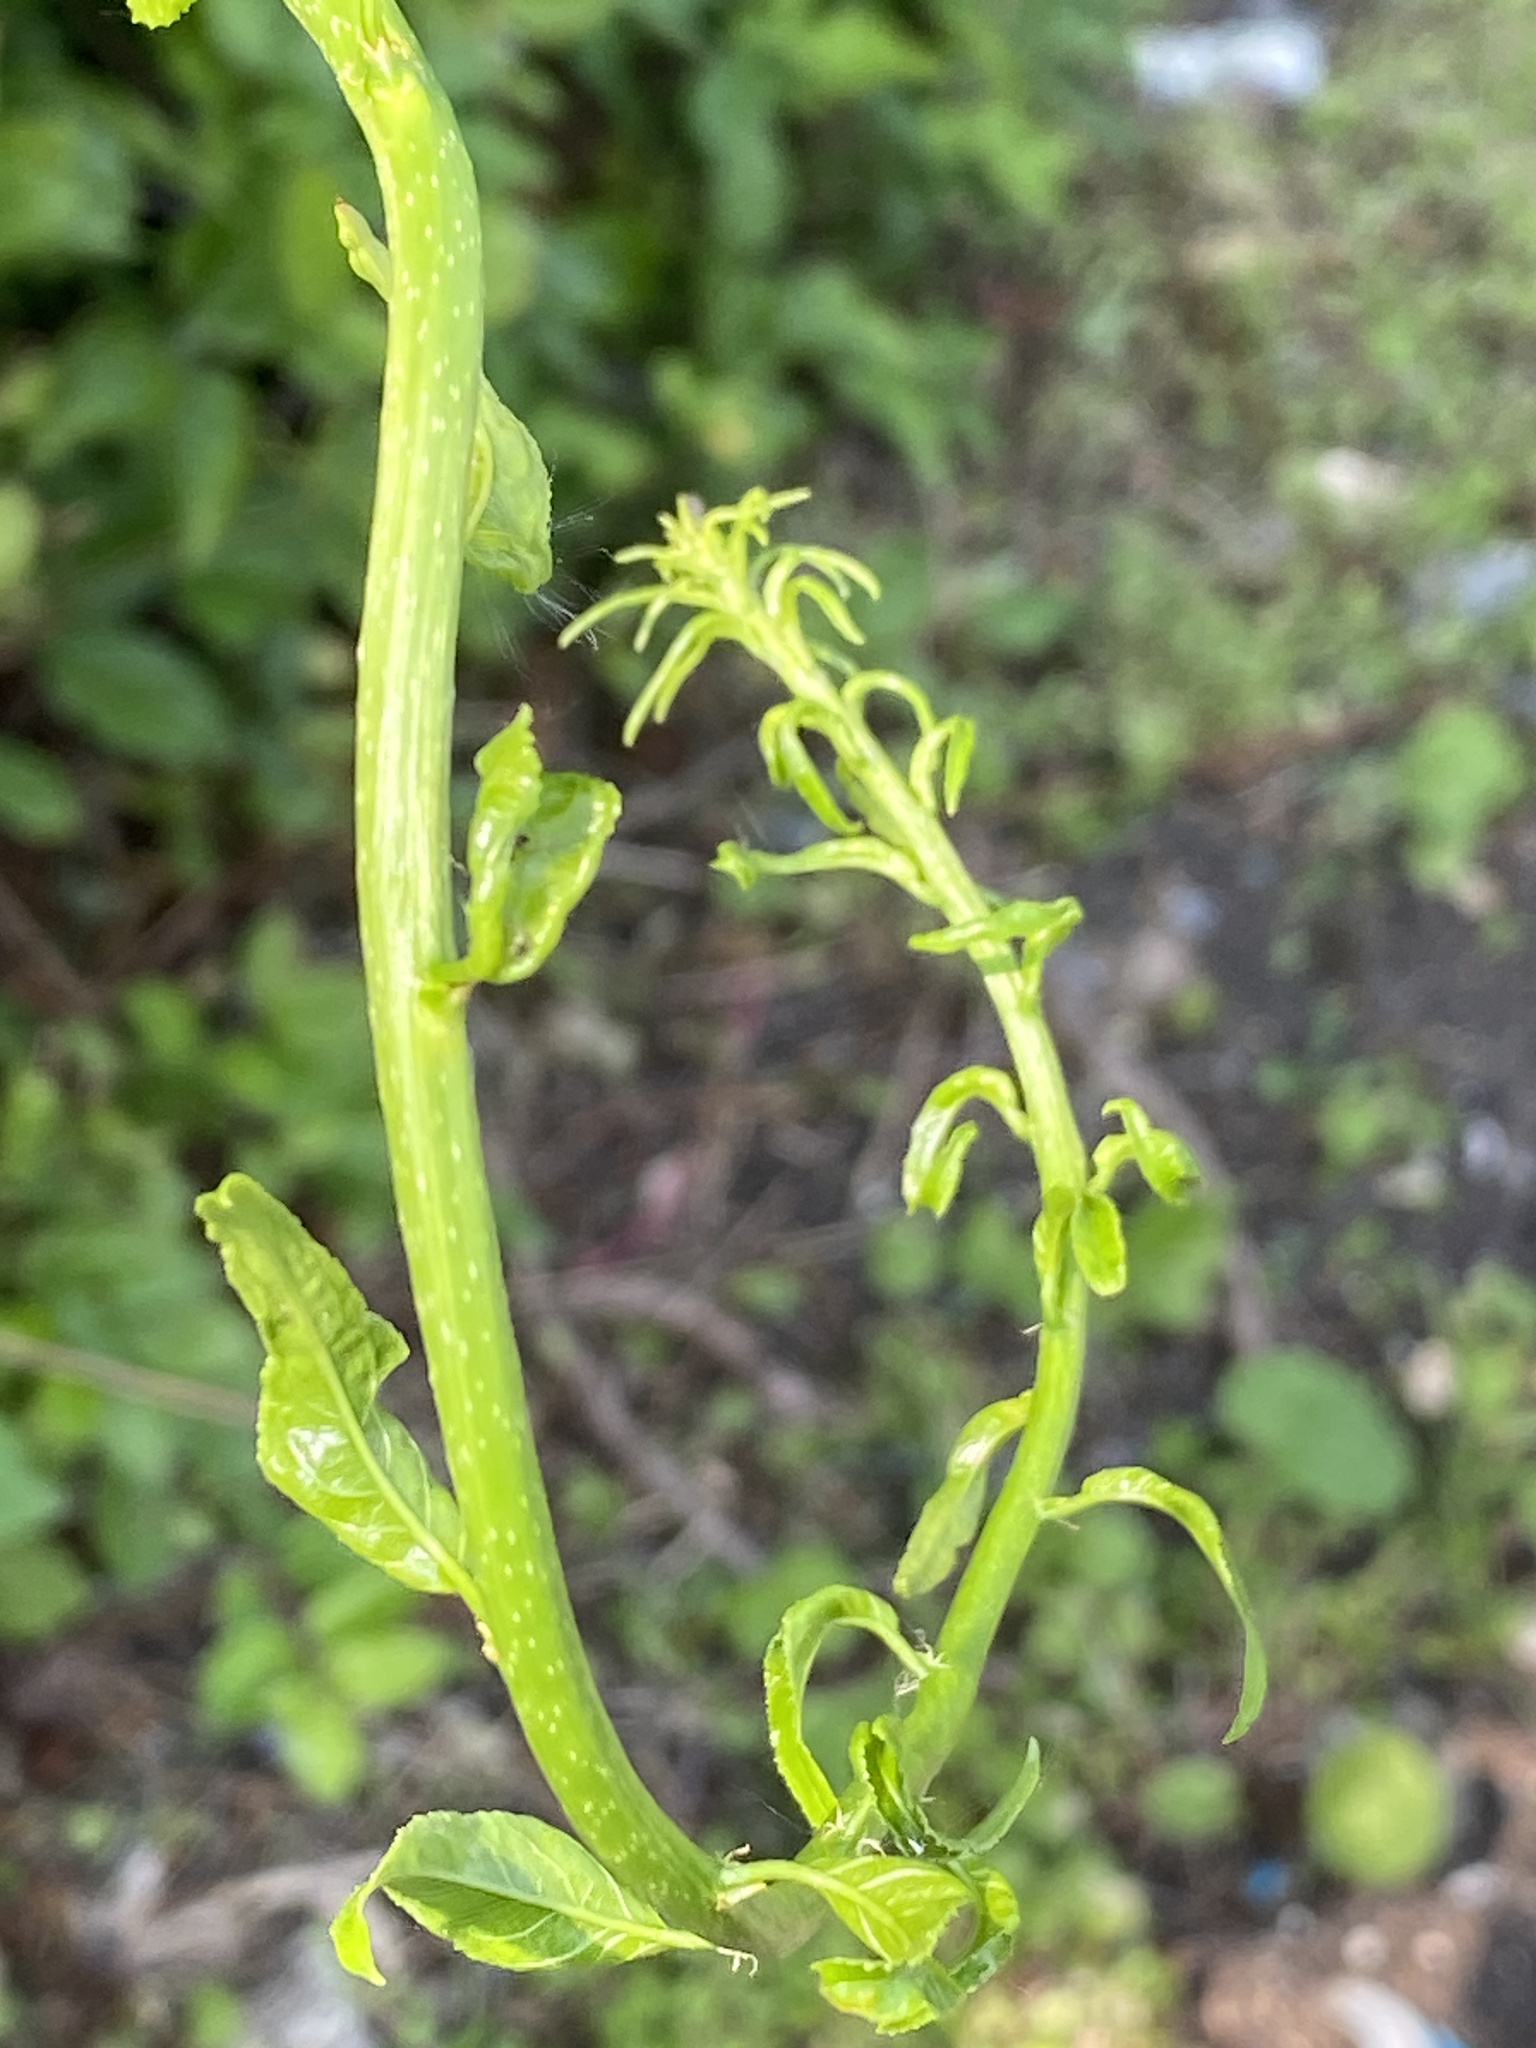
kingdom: Plantae
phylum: Tracheophyta
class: Magnoliopsida
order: Celastrales
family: Celastraceae
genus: Celastrus
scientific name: Celastrus orbiculatus
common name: Oriental bittersweet
